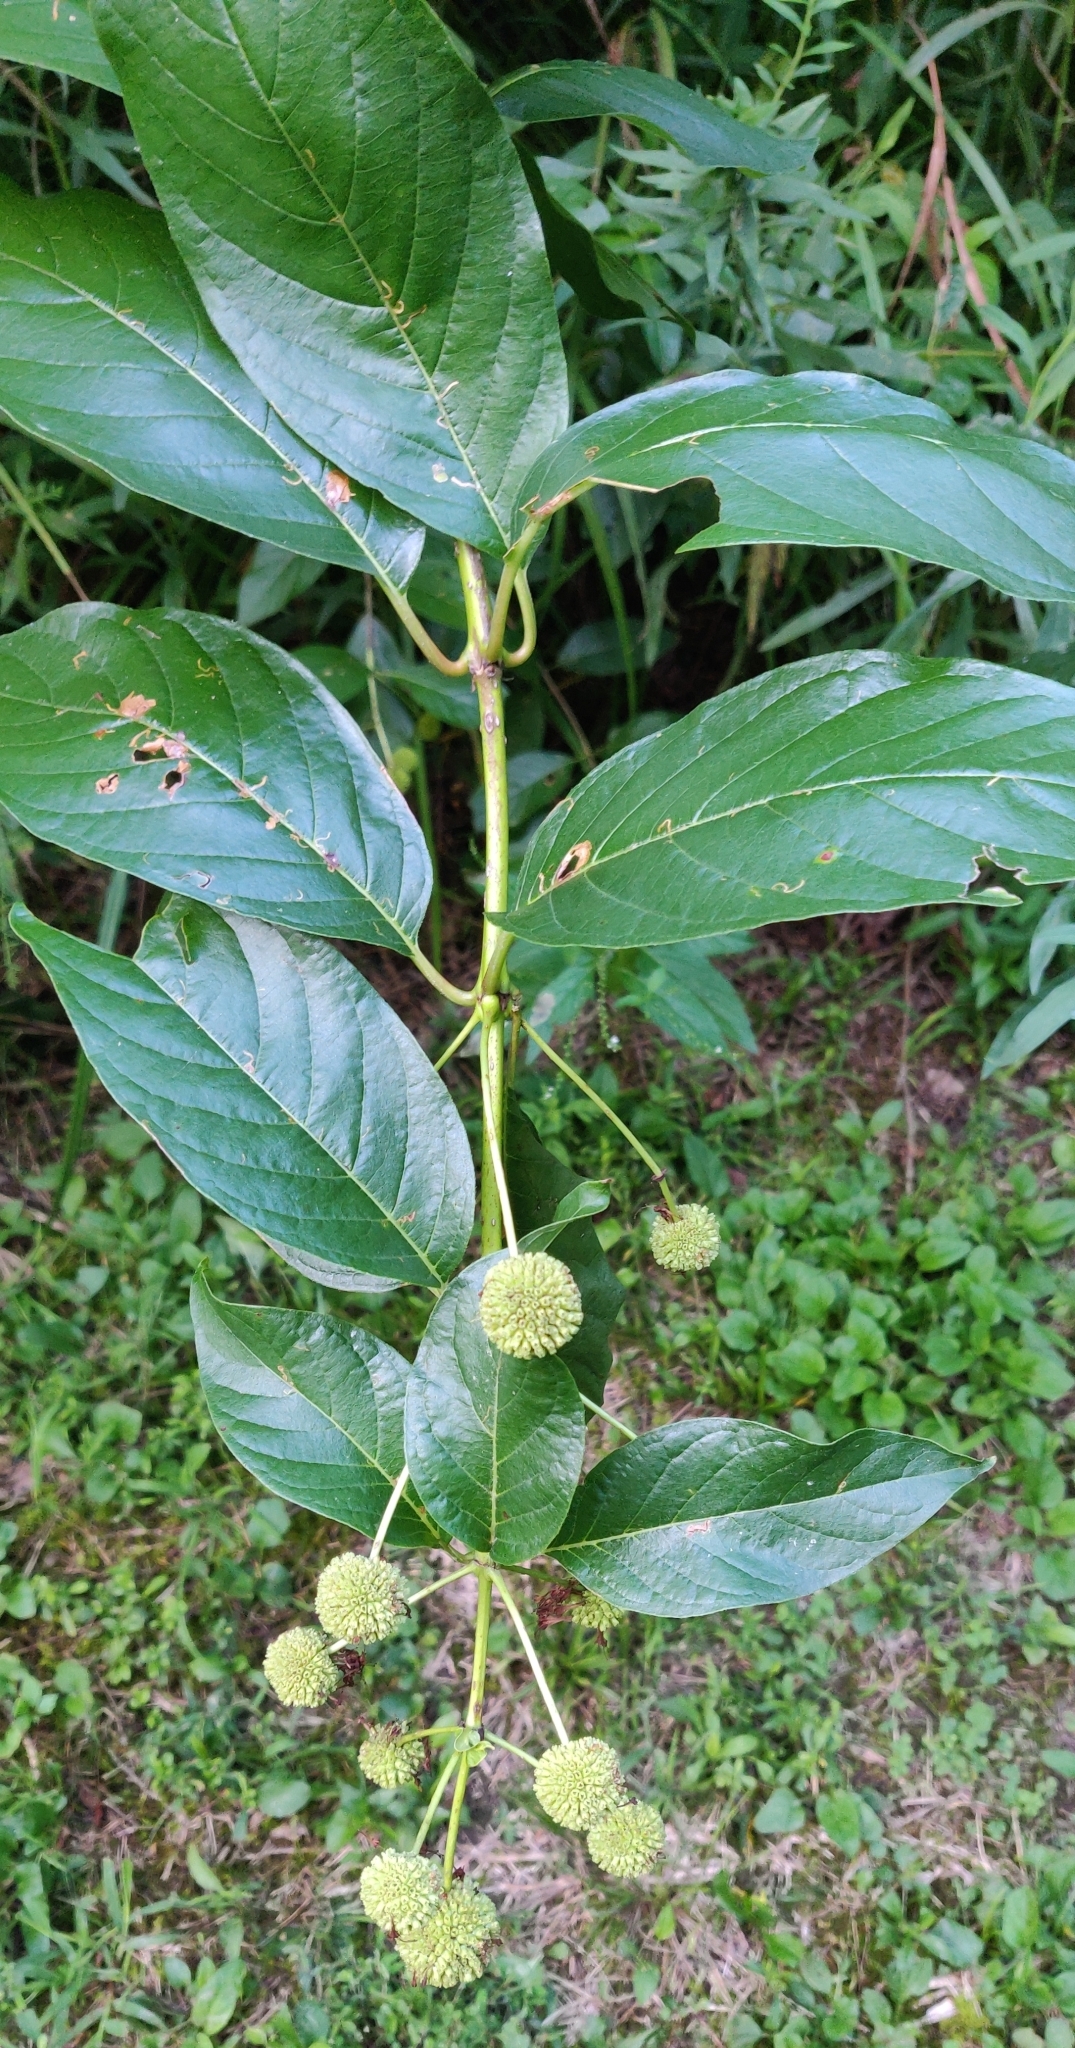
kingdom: Plantae
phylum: Tracheophyta
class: Magnoliopsida
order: Gentianales
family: Rubiaceae
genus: Cephalanthus
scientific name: Cephalanthus occidentalis
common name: Button-willow
